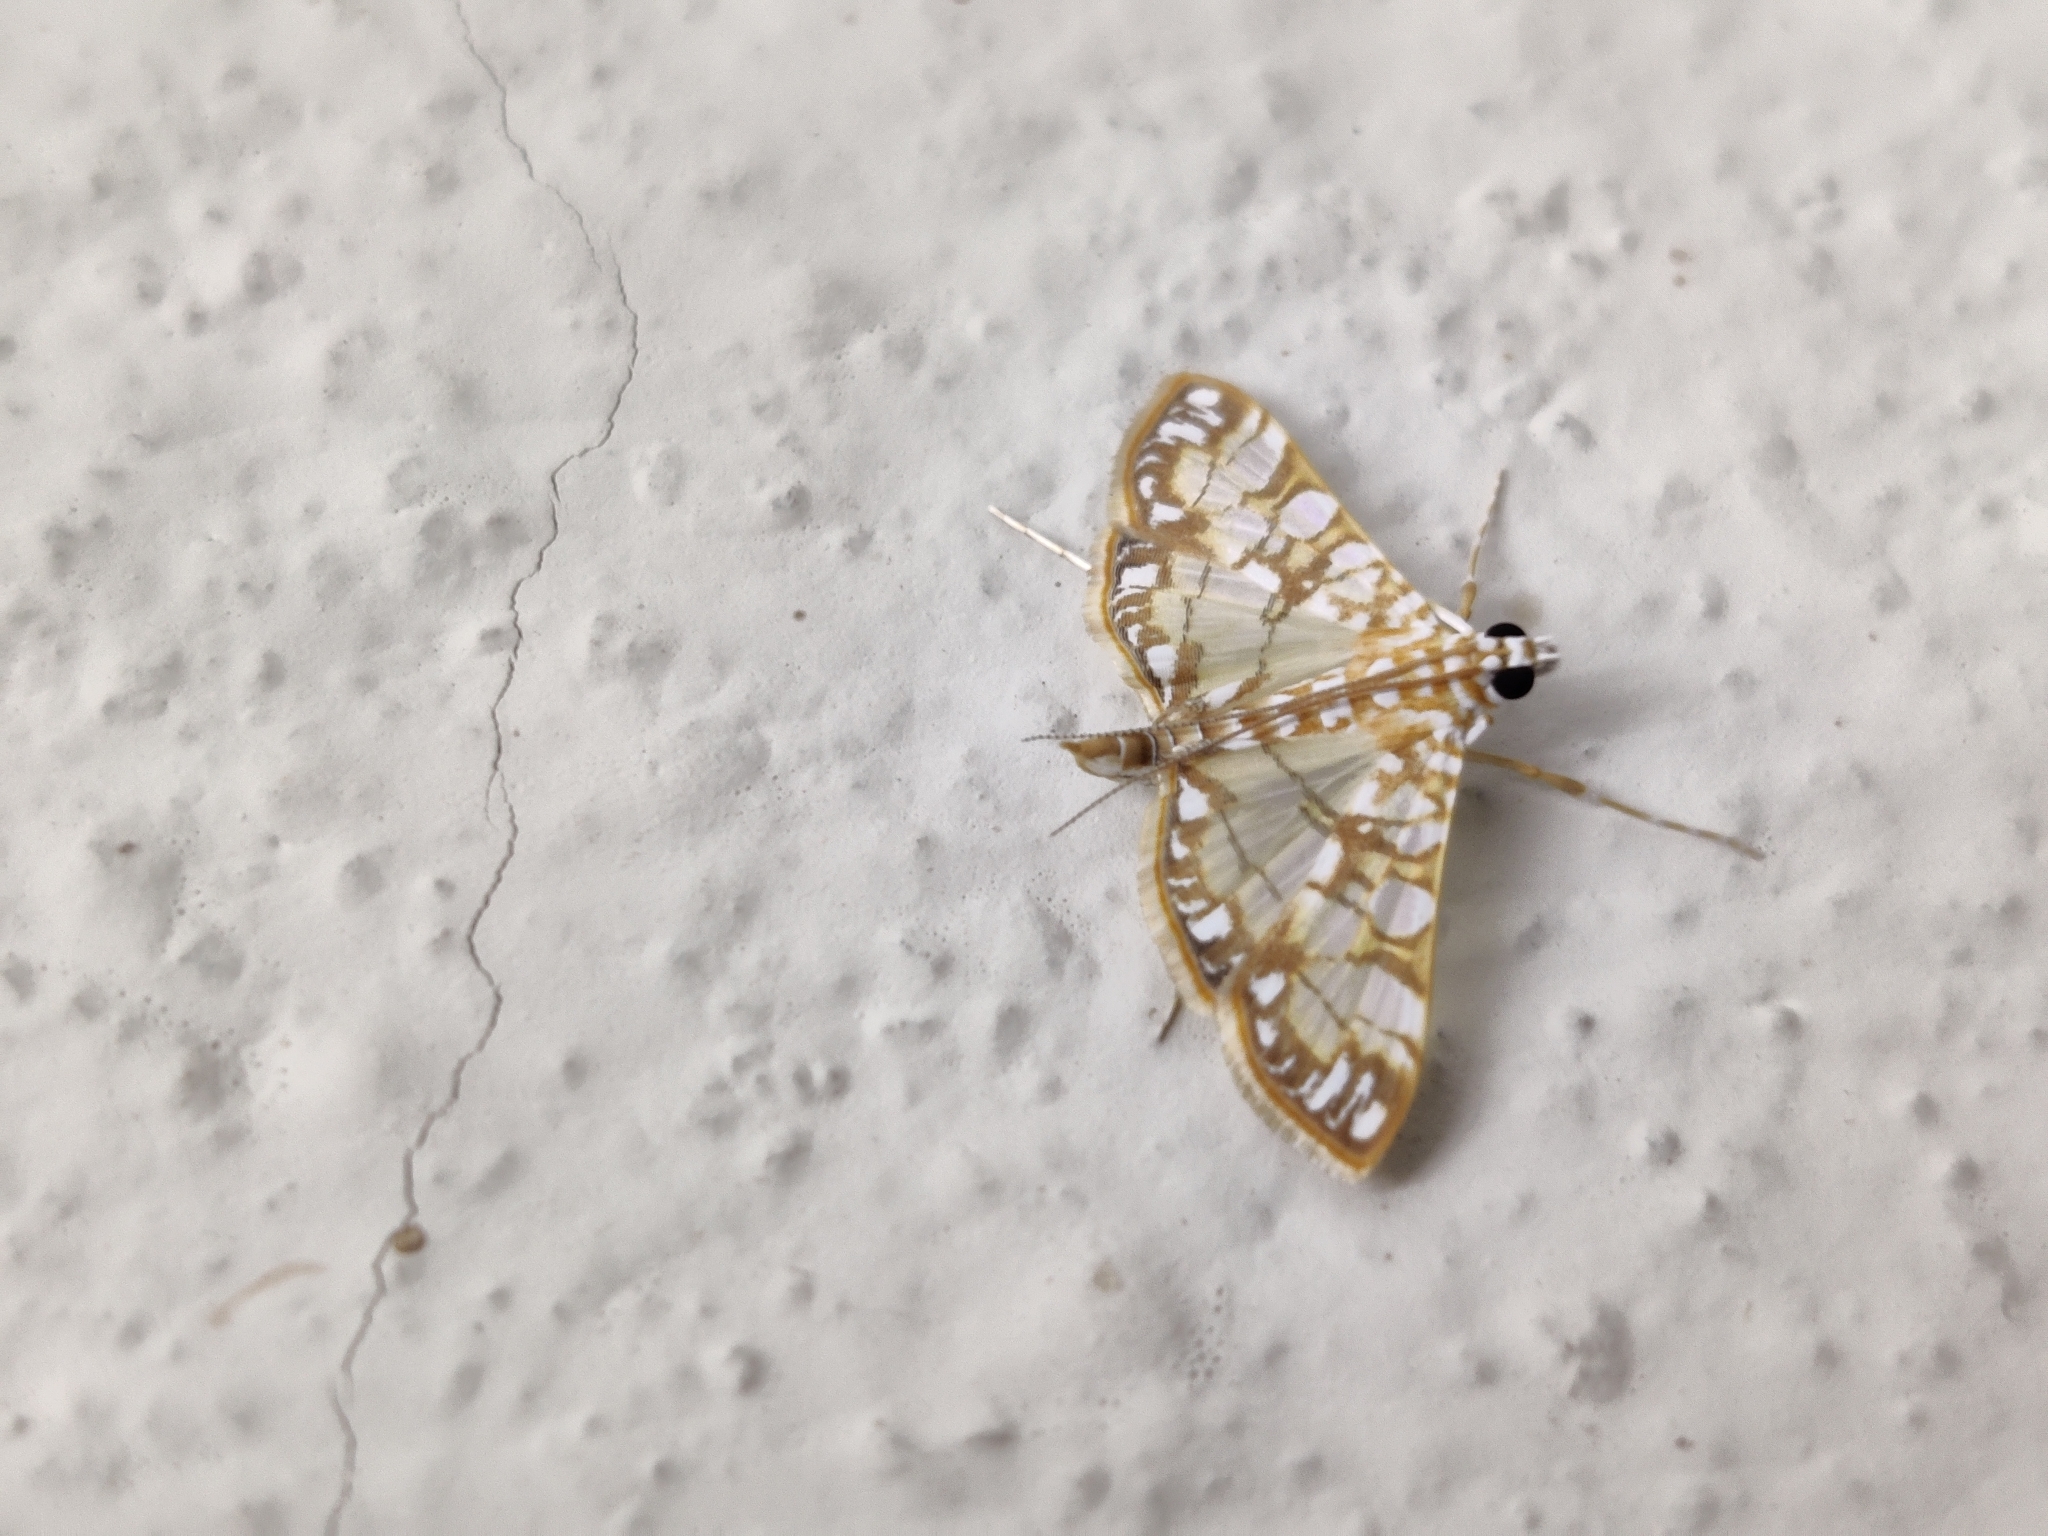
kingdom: Animalia
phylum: Arthropoda
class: Insecta
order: Lepidoptera
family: Crambidae
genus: Synclera
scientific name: Synclera traducalis
